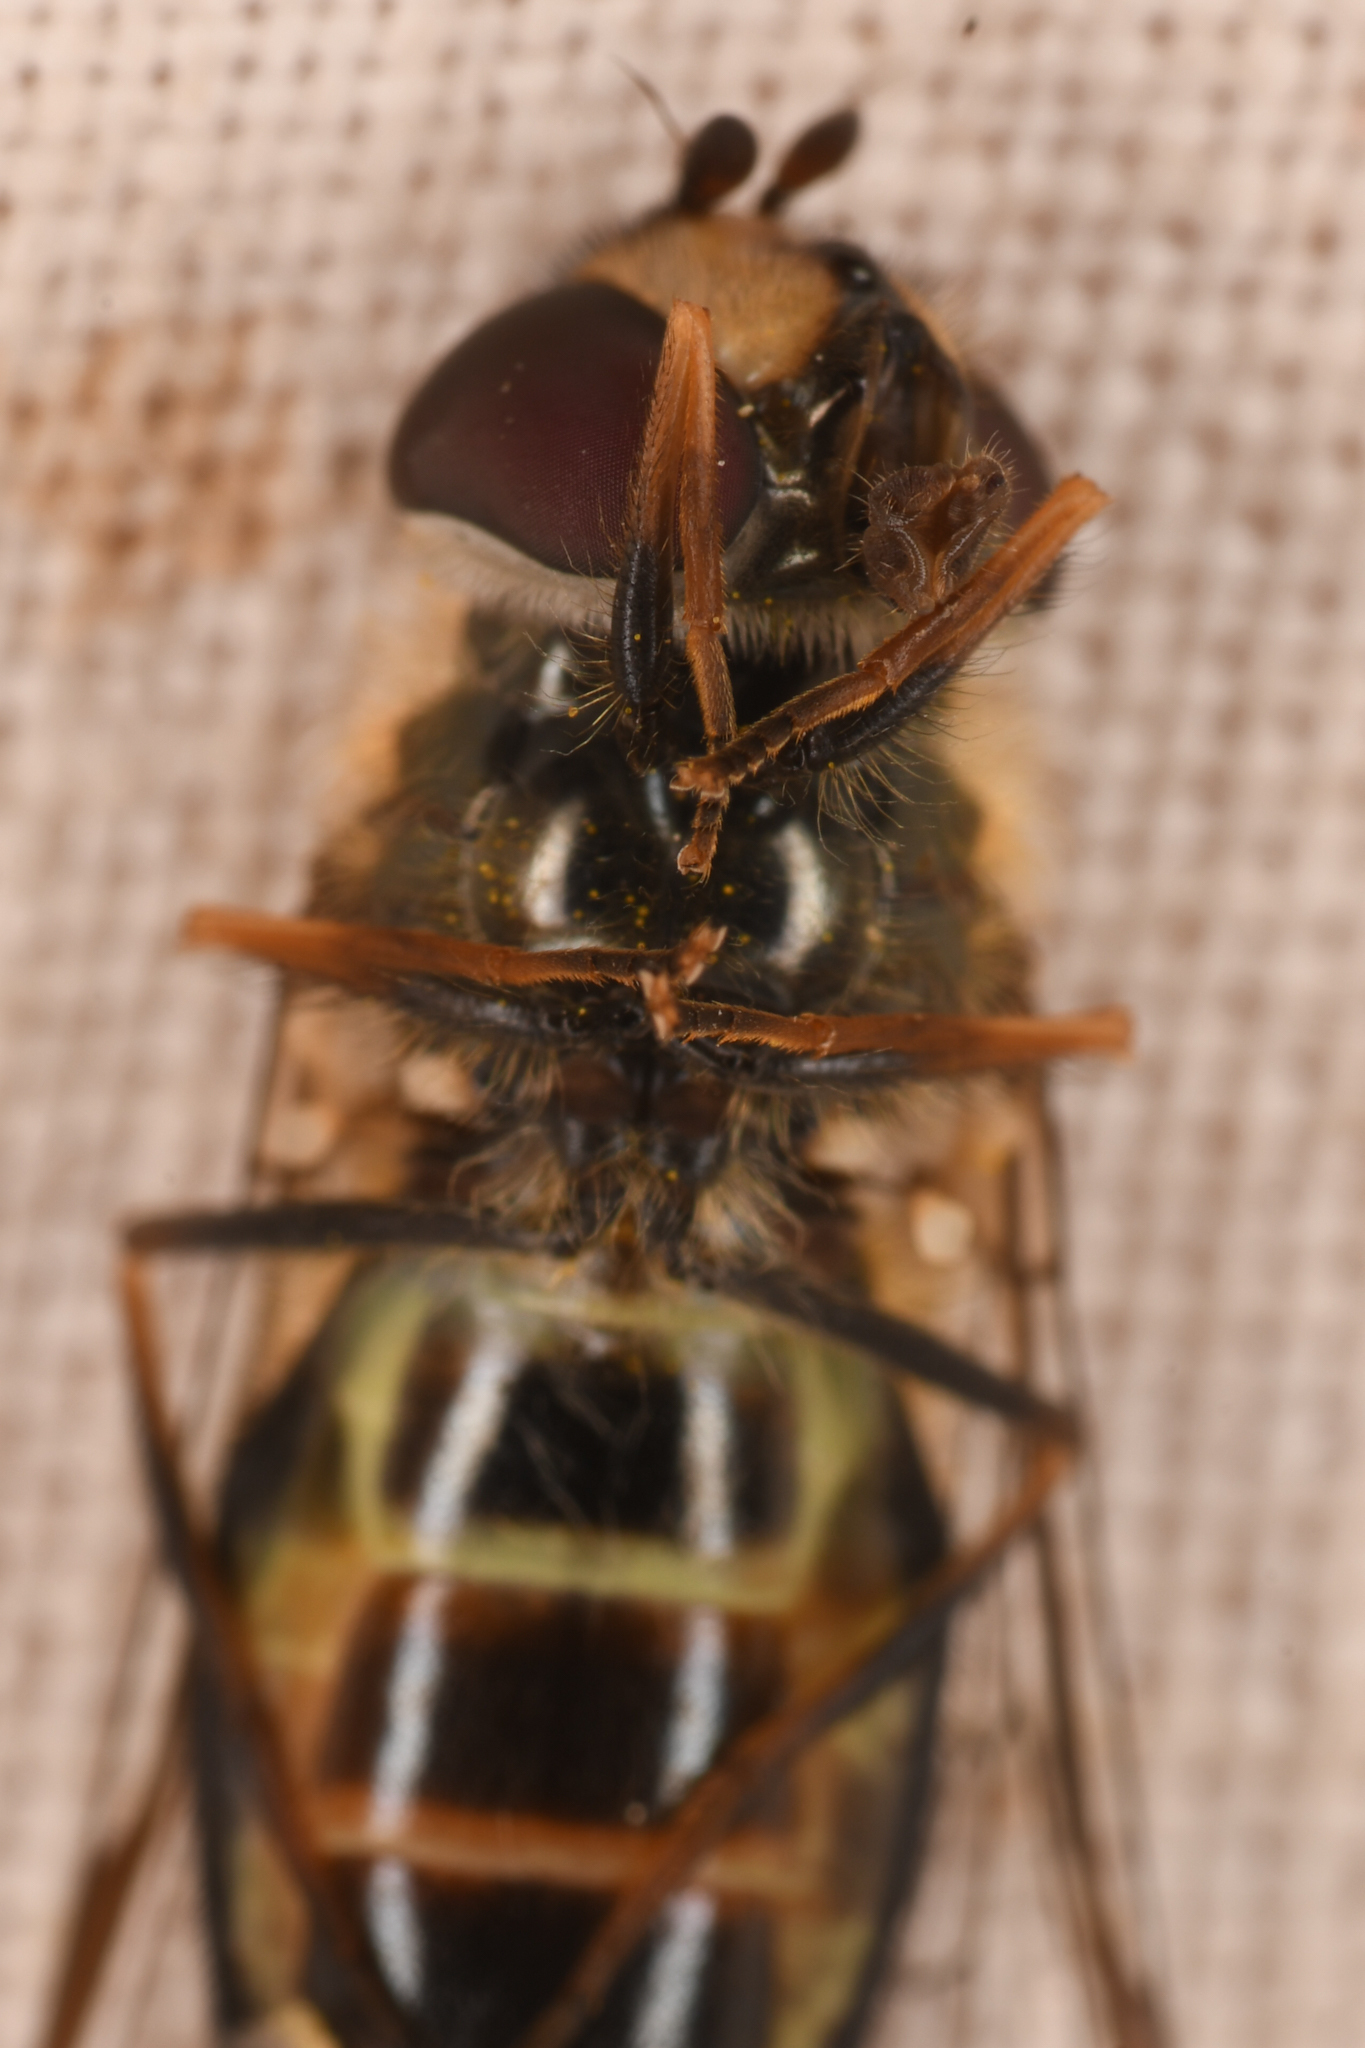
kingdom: Animalia
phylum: Arthropoda
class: Insecta
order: Diptera
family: Syrphidae
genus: Lapposyrphus
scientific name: Lapposyrphus lapponicus
